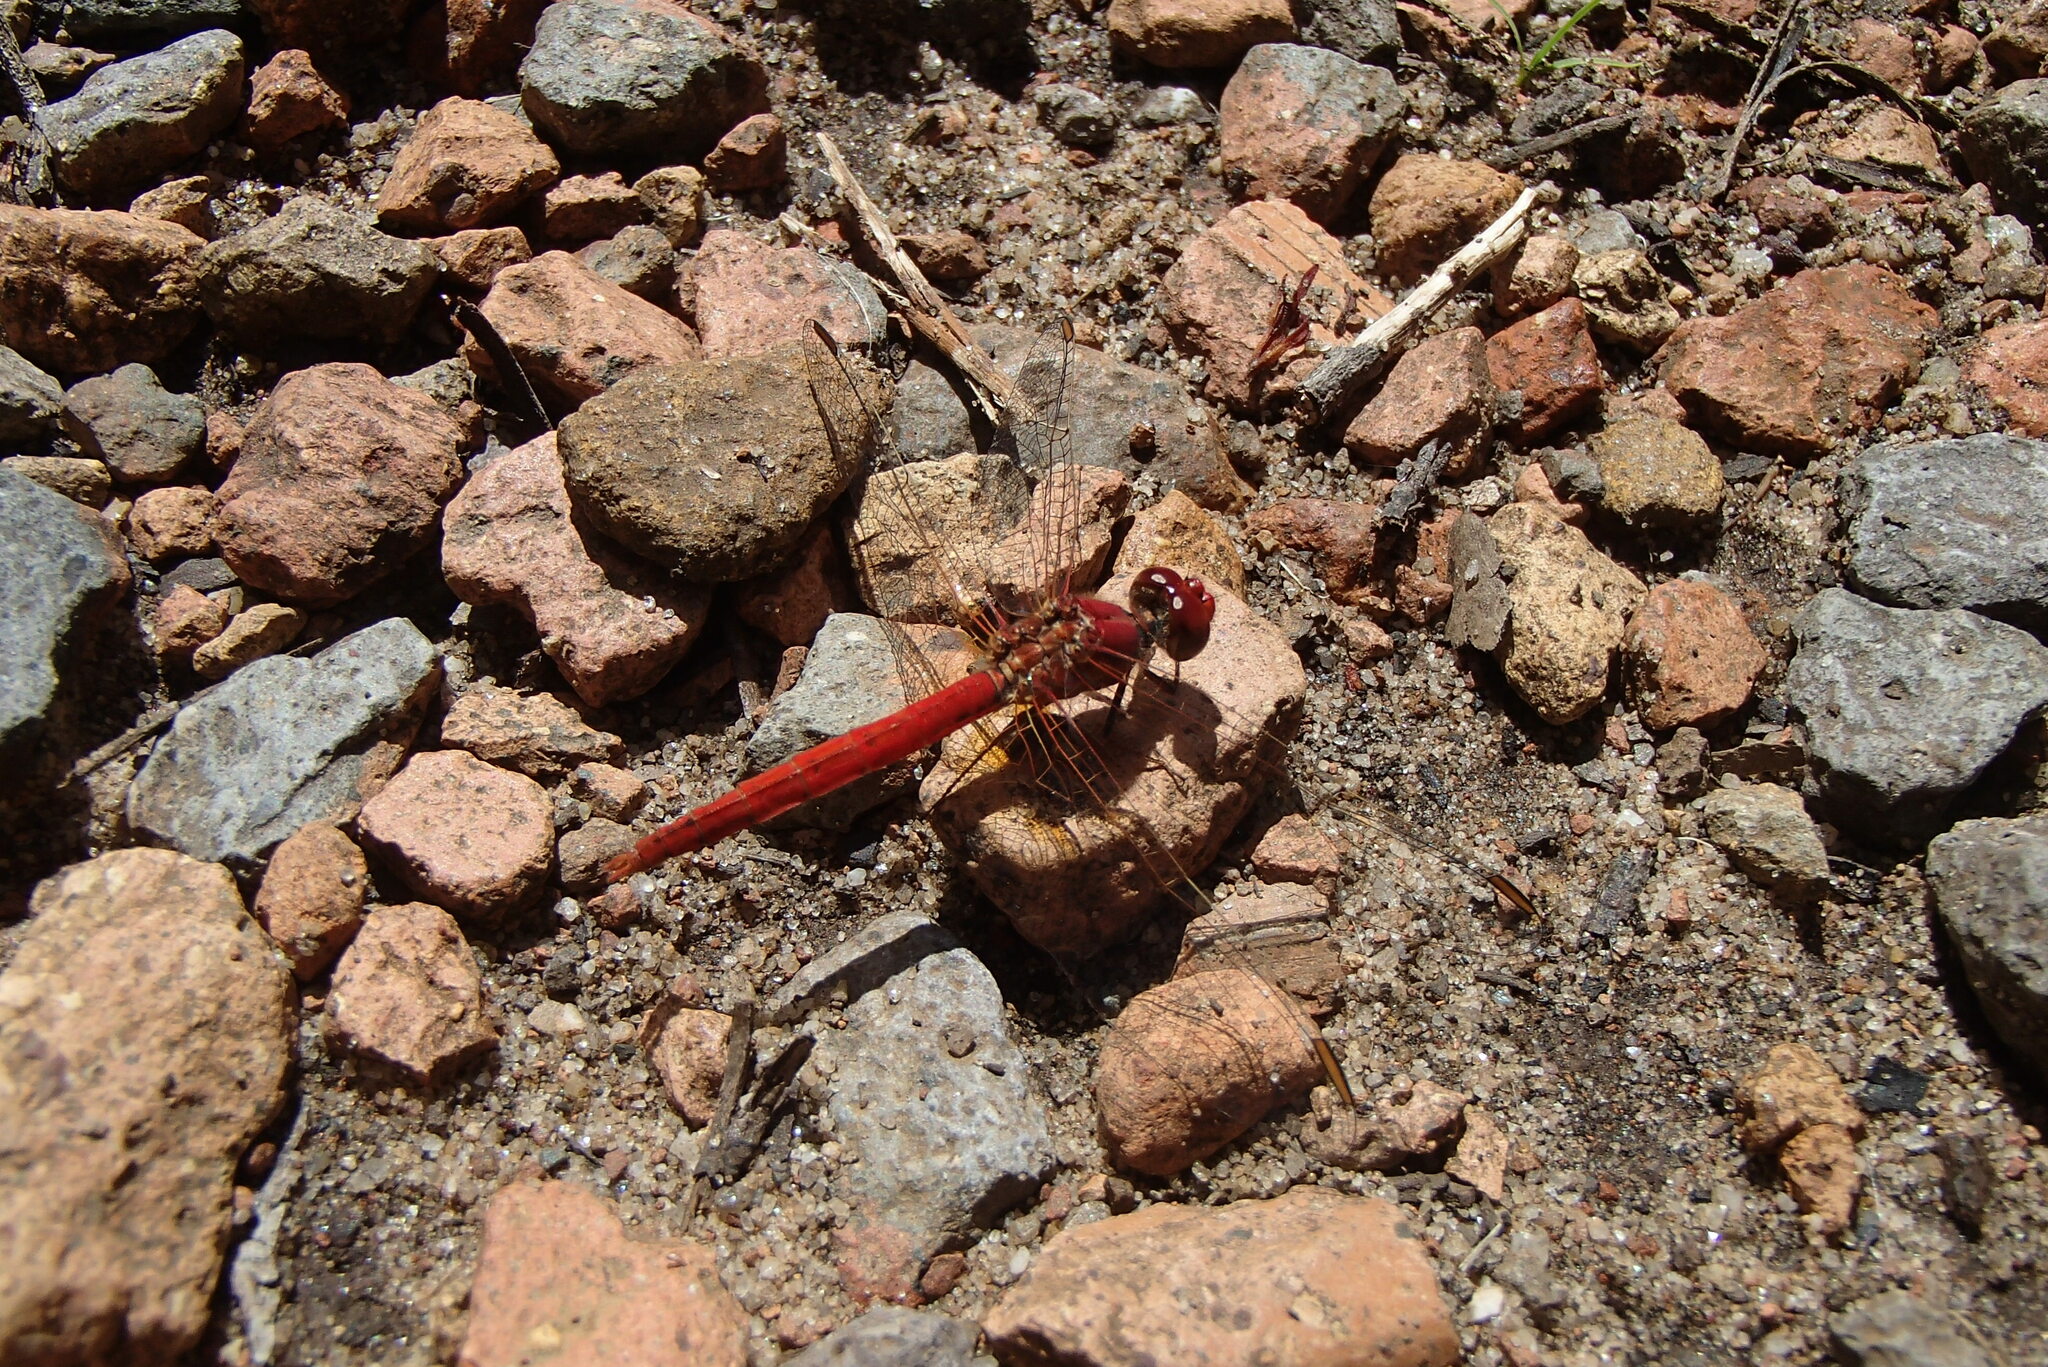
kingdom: Animalia
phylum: Arthropoda
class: Insecta
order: Odonata
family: Libellulidae
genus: Diplacodes
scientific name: Diplacodes haematodes
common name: Scarlet percher
